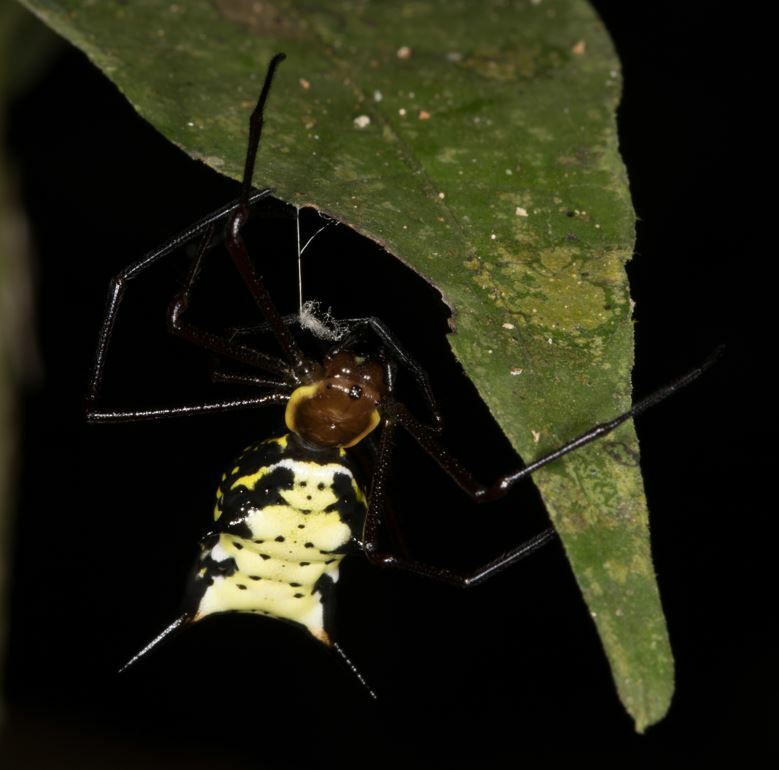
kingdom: Animalia
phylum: Arthropoda
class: Arachnida
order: Araneae
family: Araneidae
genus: Micrathena
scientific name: Micrathena miles
